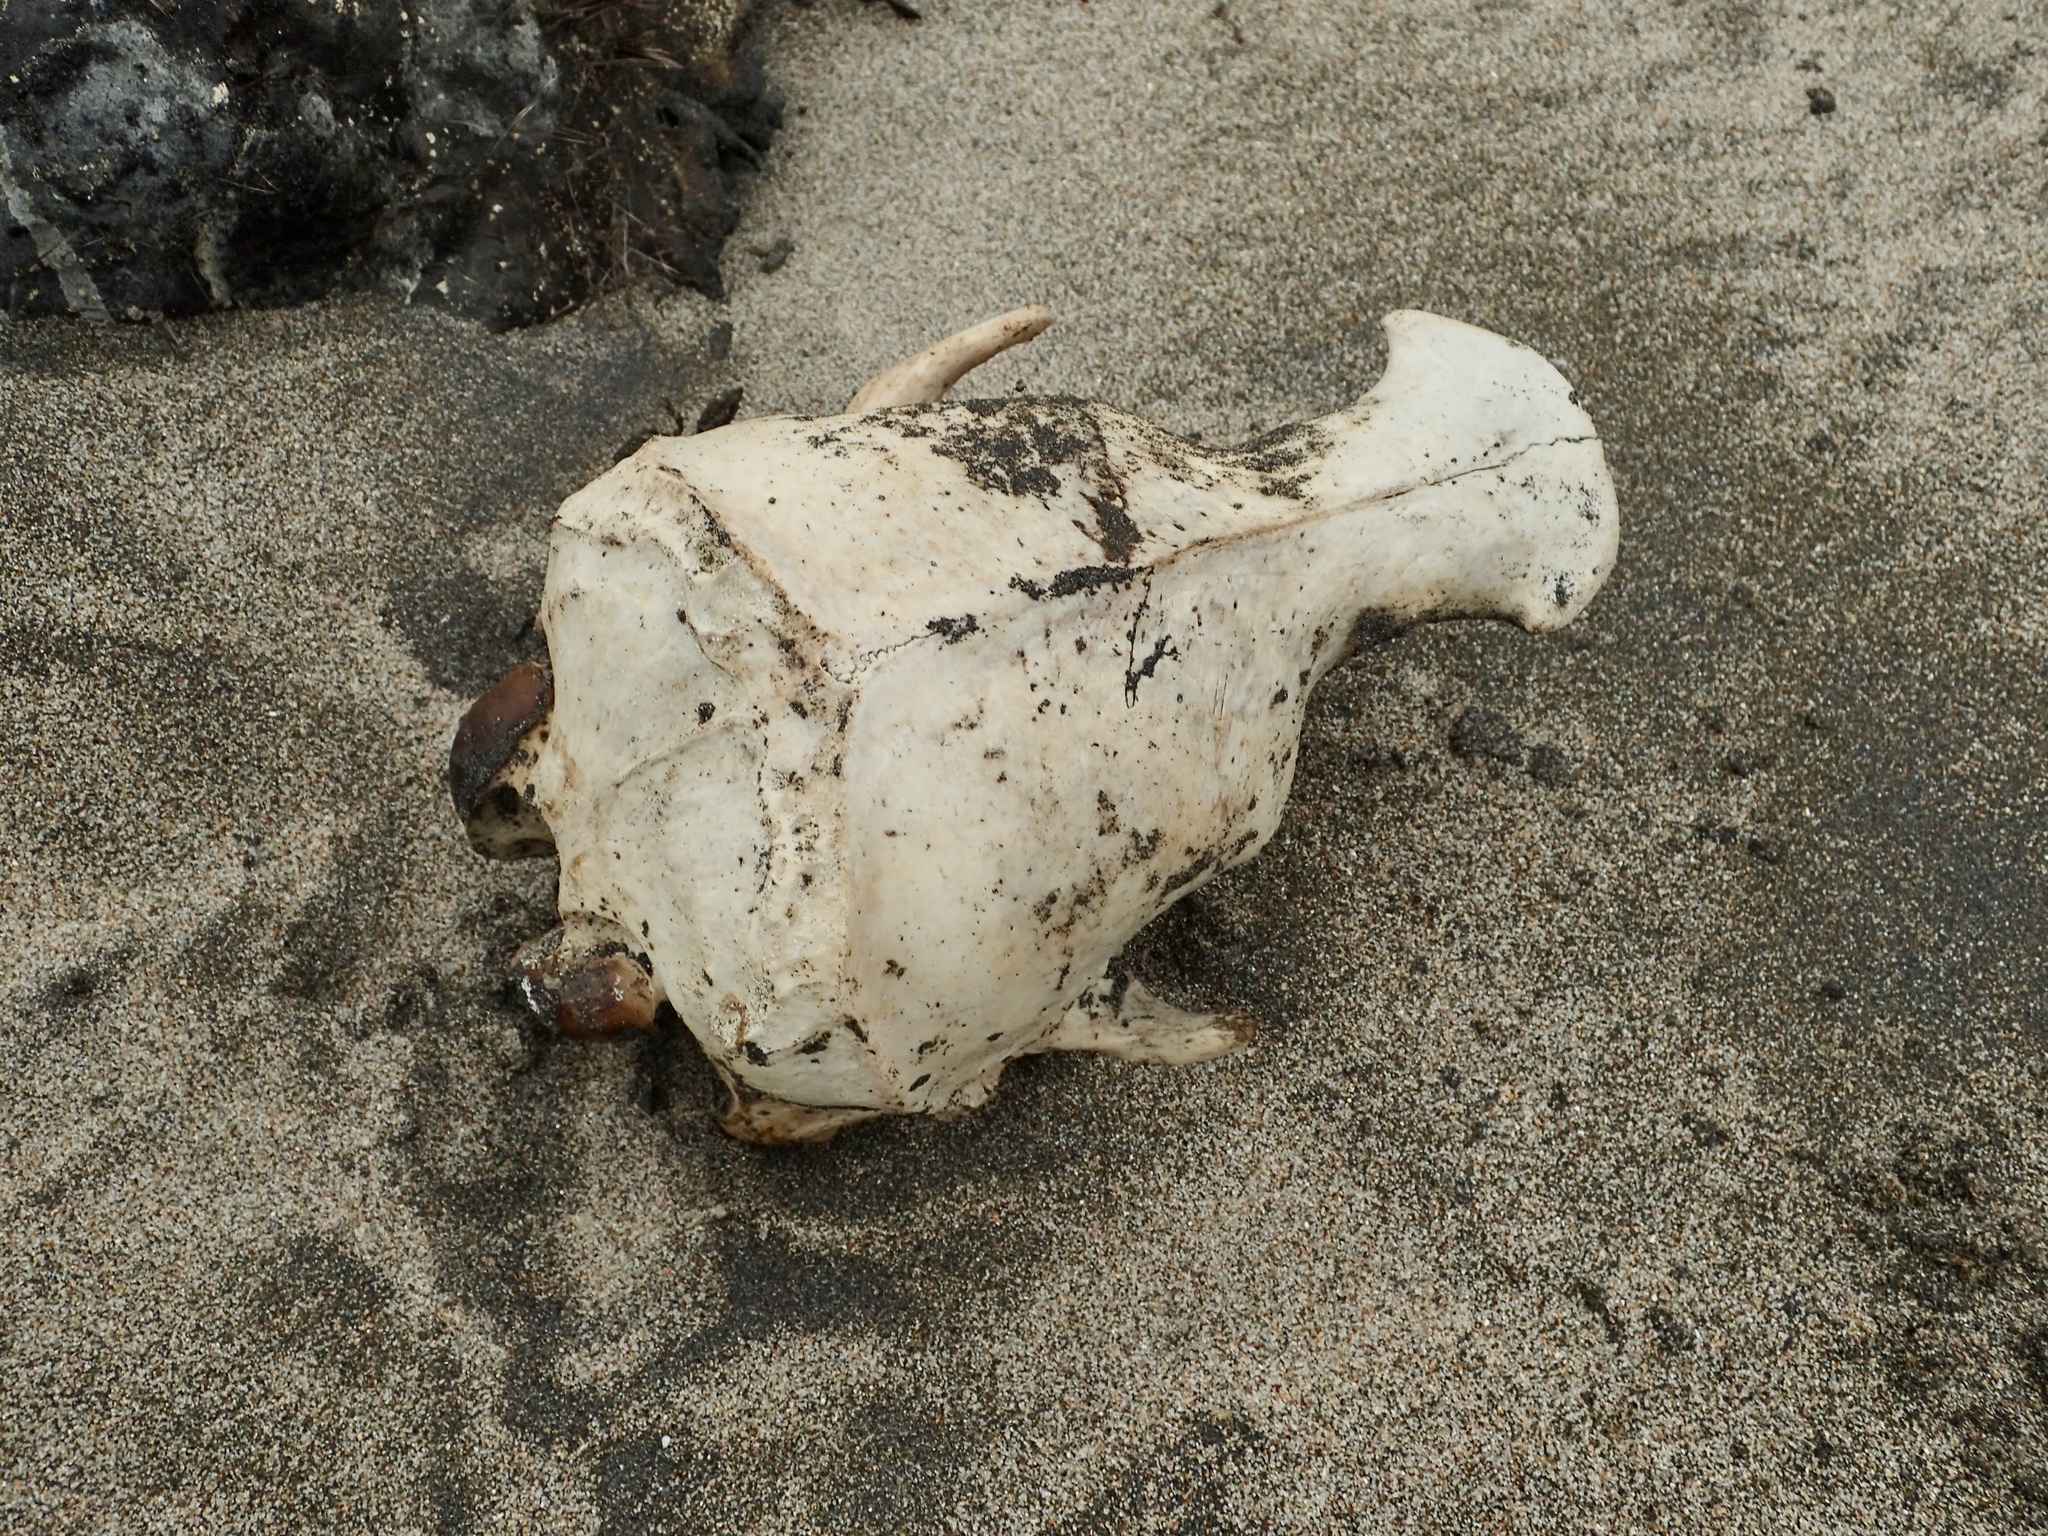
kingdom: Animalia
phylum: Chordata
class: Mammalia
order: Carnivora
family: Otariidae
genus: Zalophus
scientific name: Zalophus californianus
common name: California sea lion
